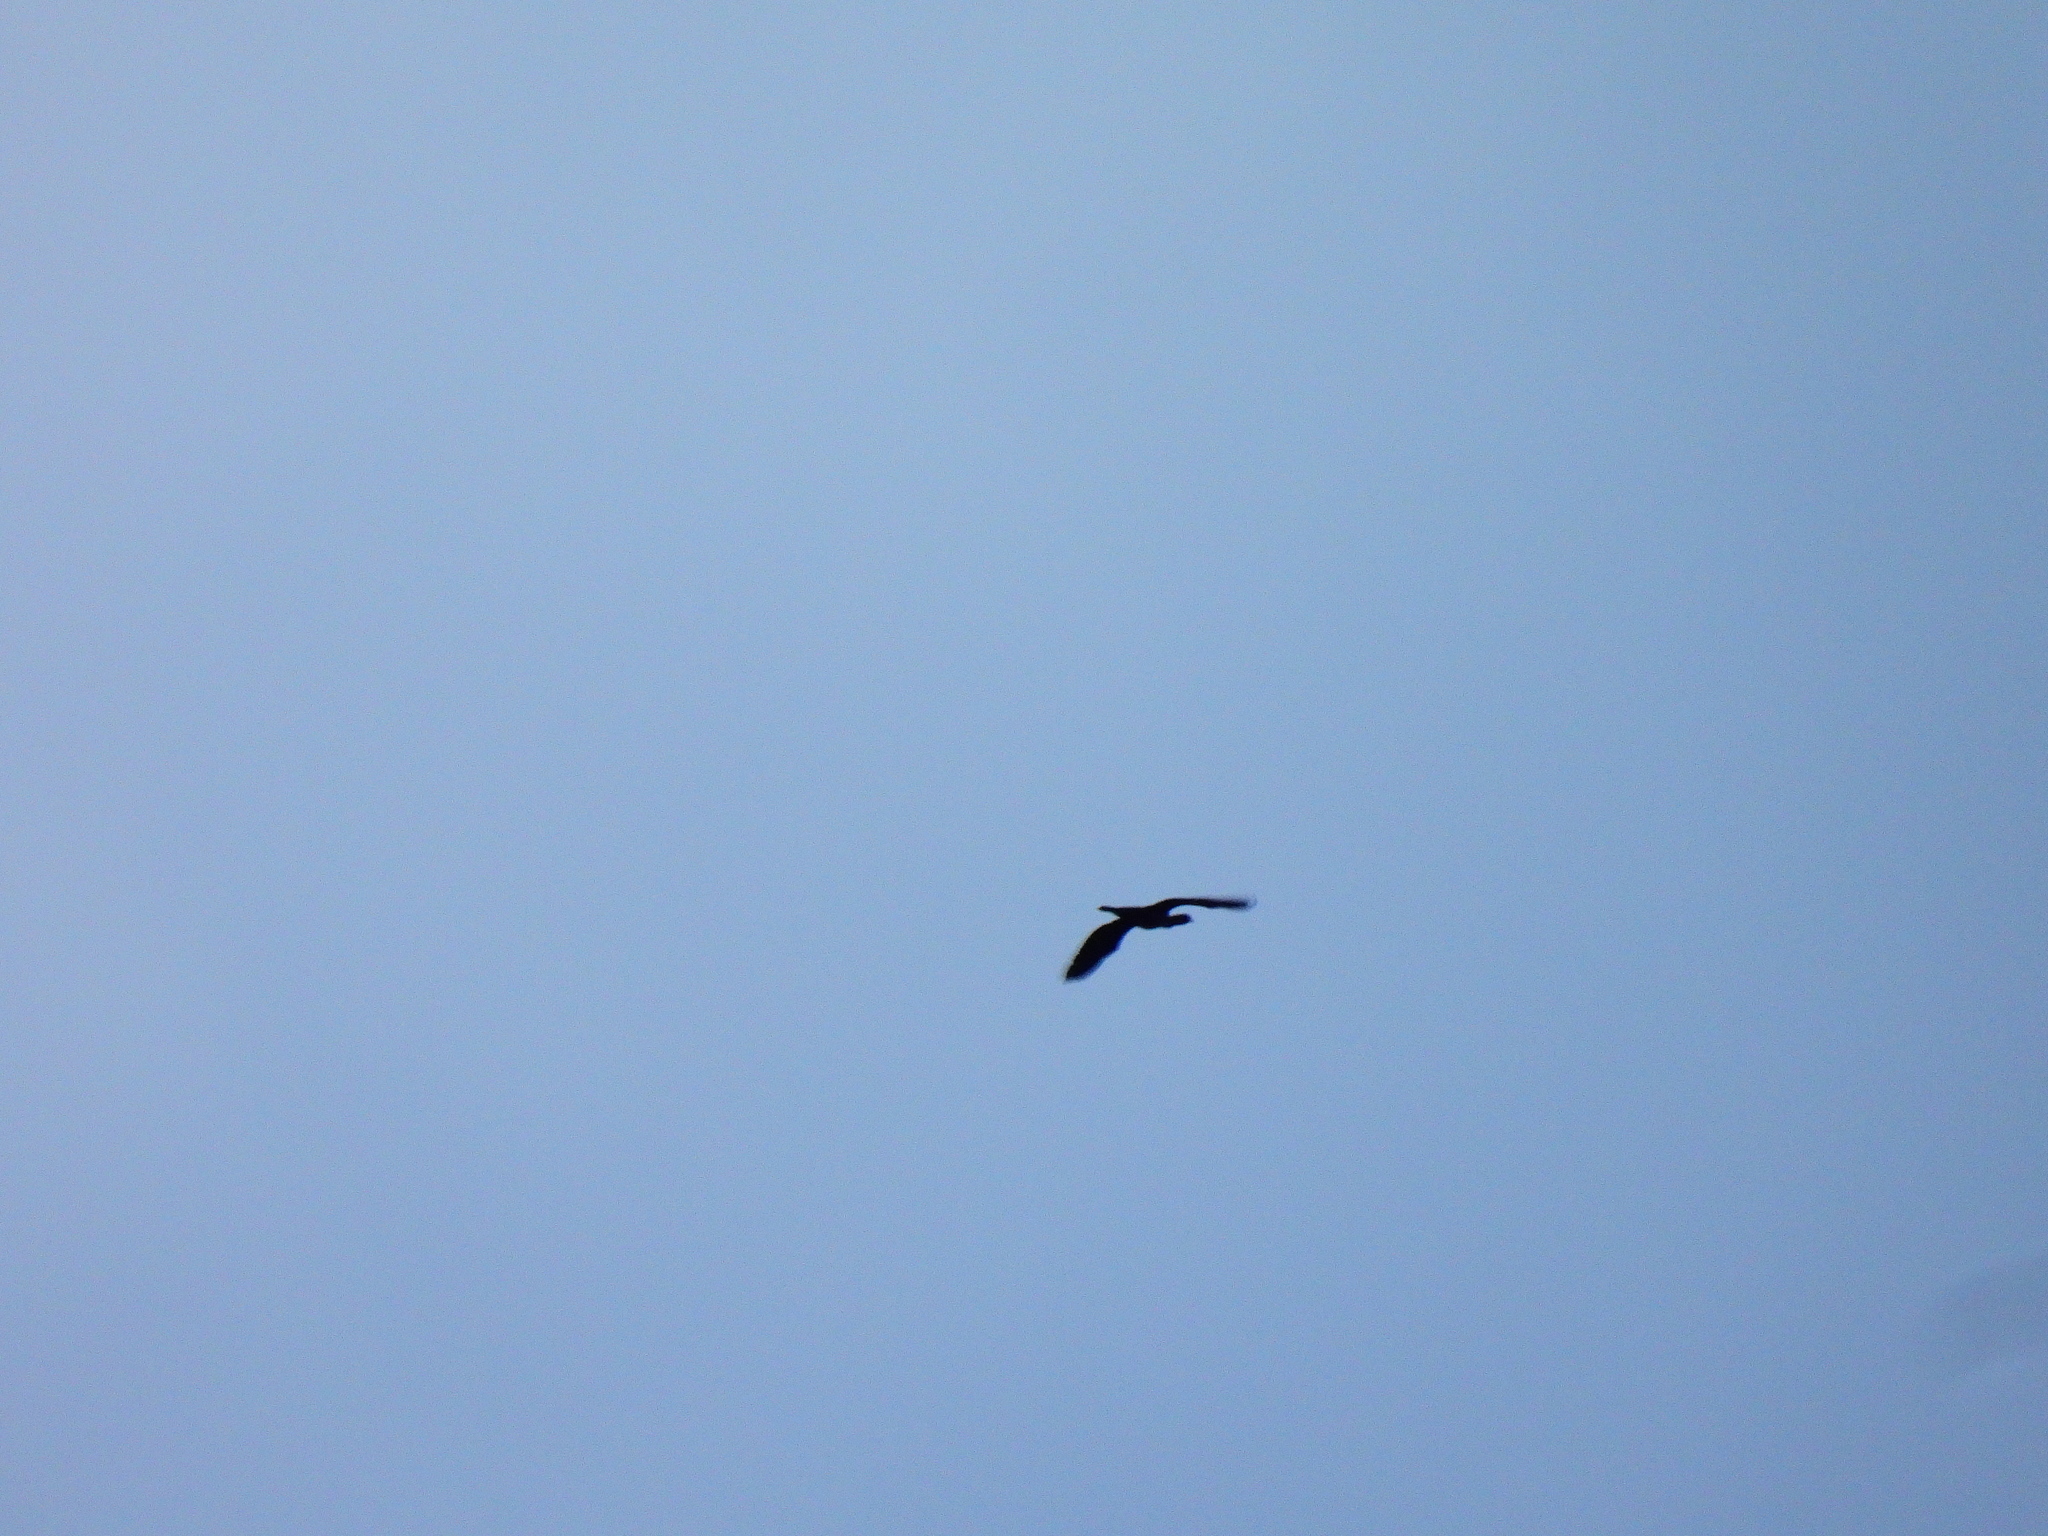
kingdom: Animalia
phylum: Chordata
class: Aves
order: Suliformes
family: Phalacrocoracidae
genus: Phalacrocorax
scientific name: Phalacrocorax carbo
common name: Great cormorant
